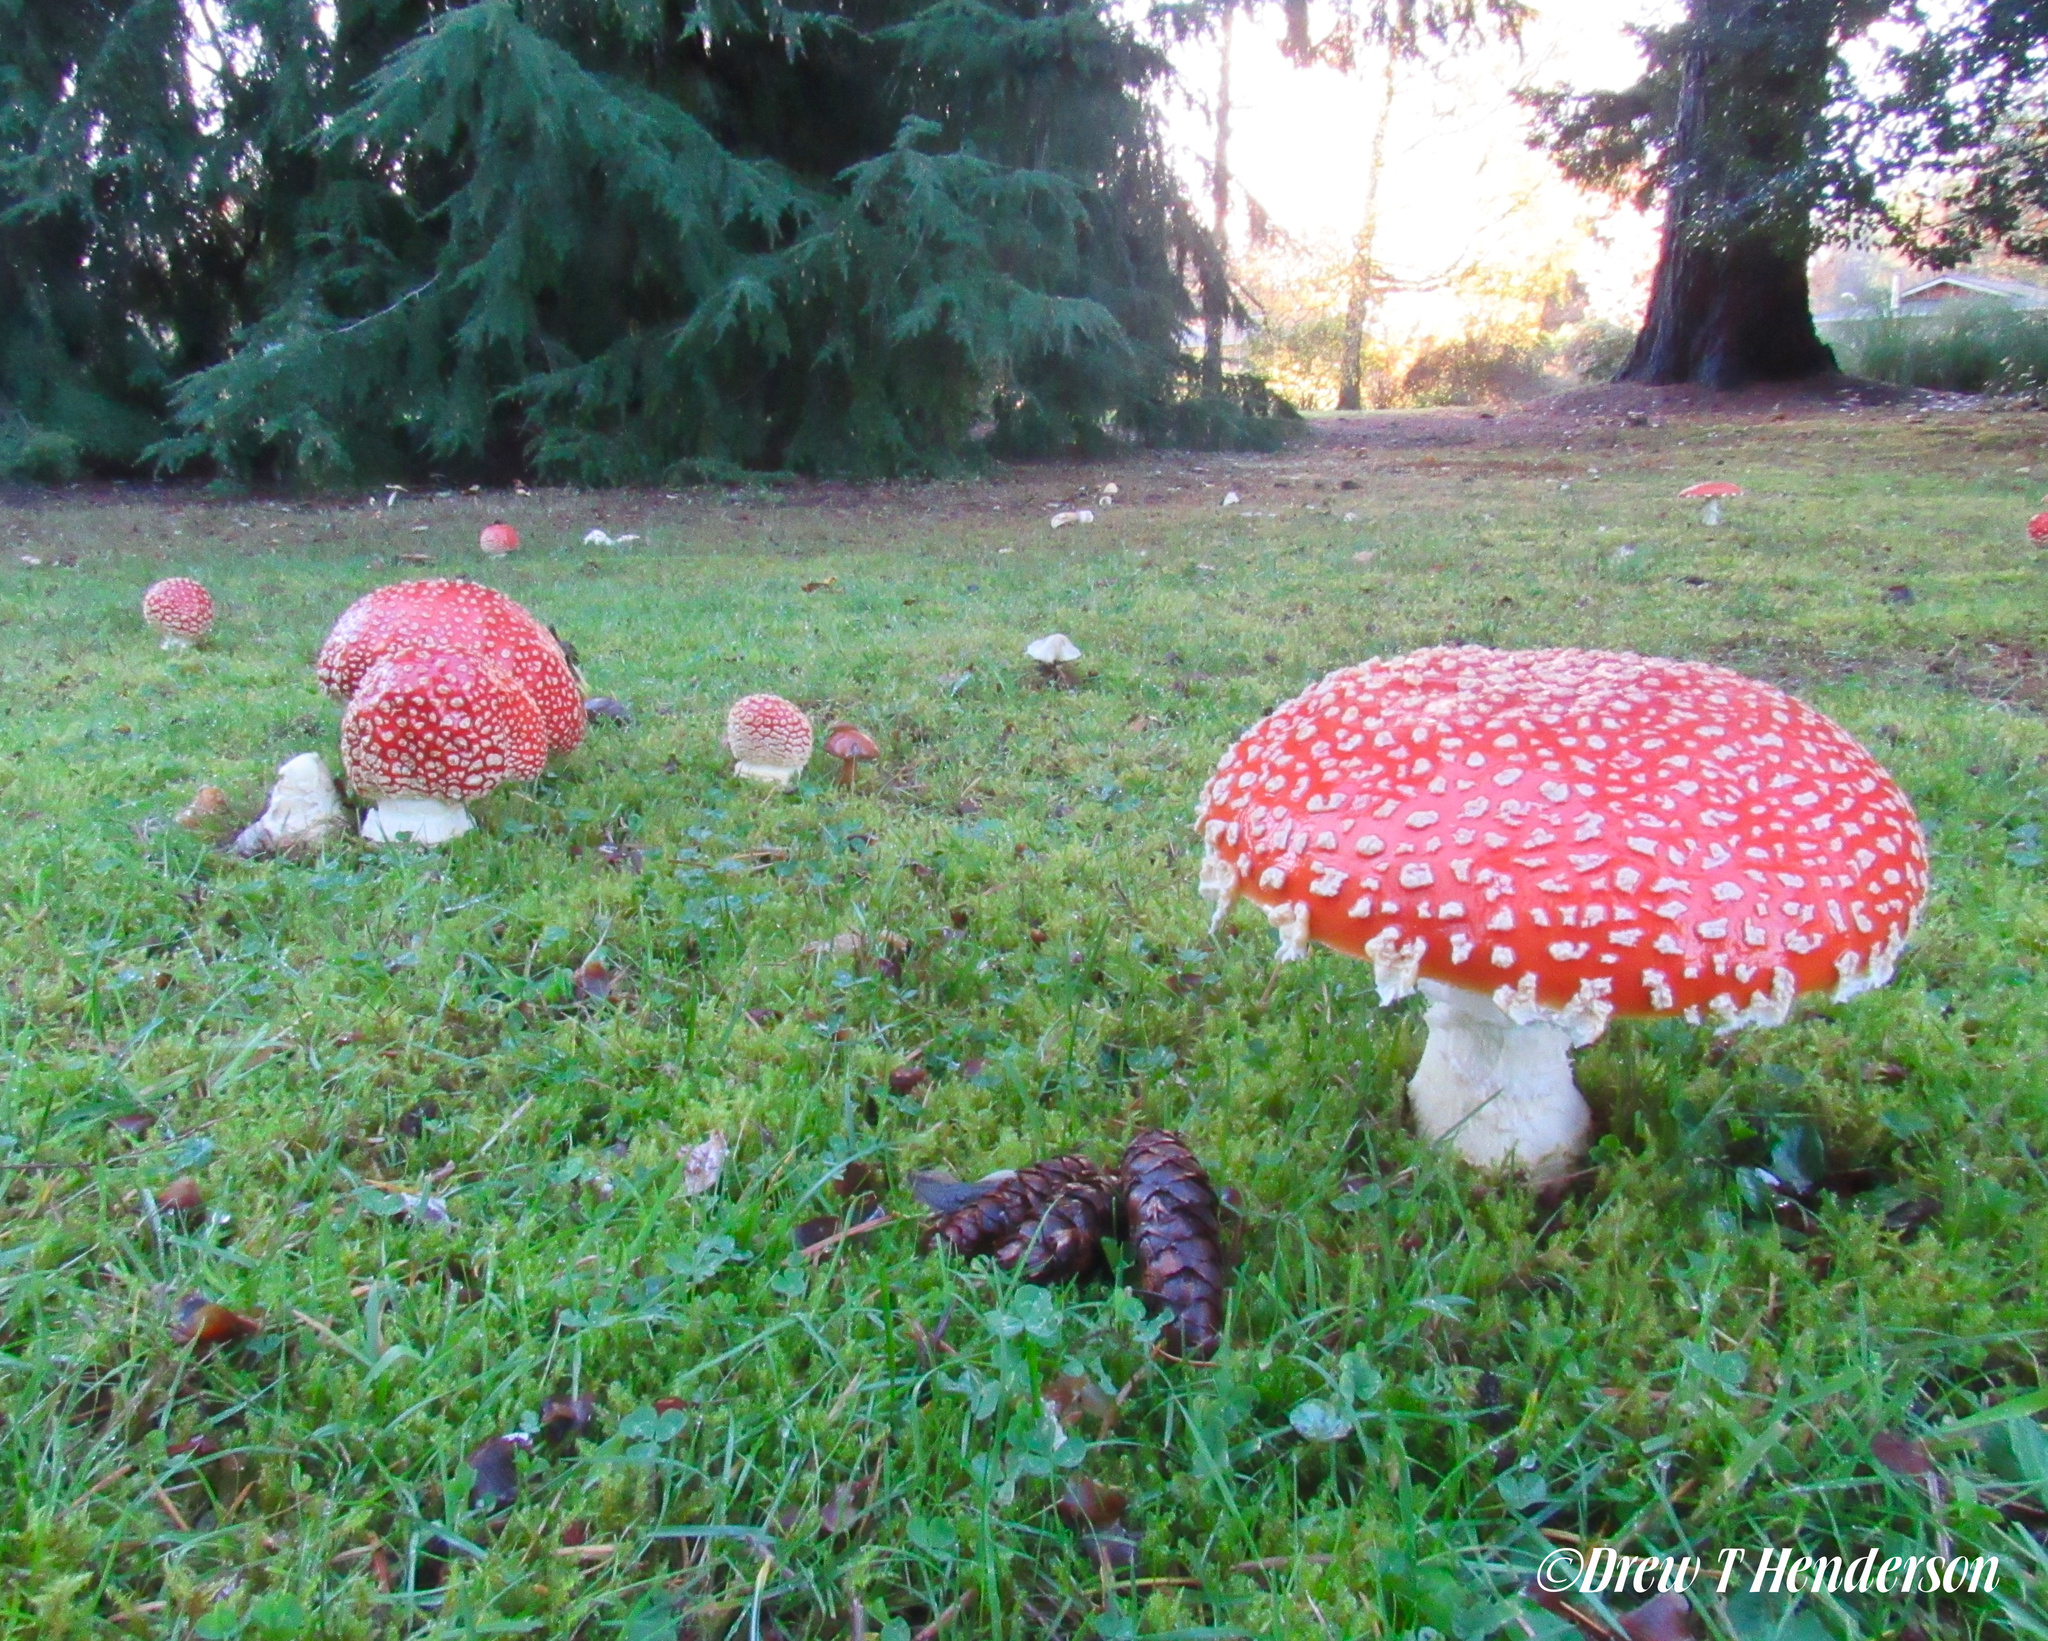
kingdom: Fungi
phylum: Basidiomycota
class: Agaricomycetes
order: Agaricales
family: Amanitaceae
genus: Amanita
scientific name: Amanita muscaria
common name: Fly agaric
